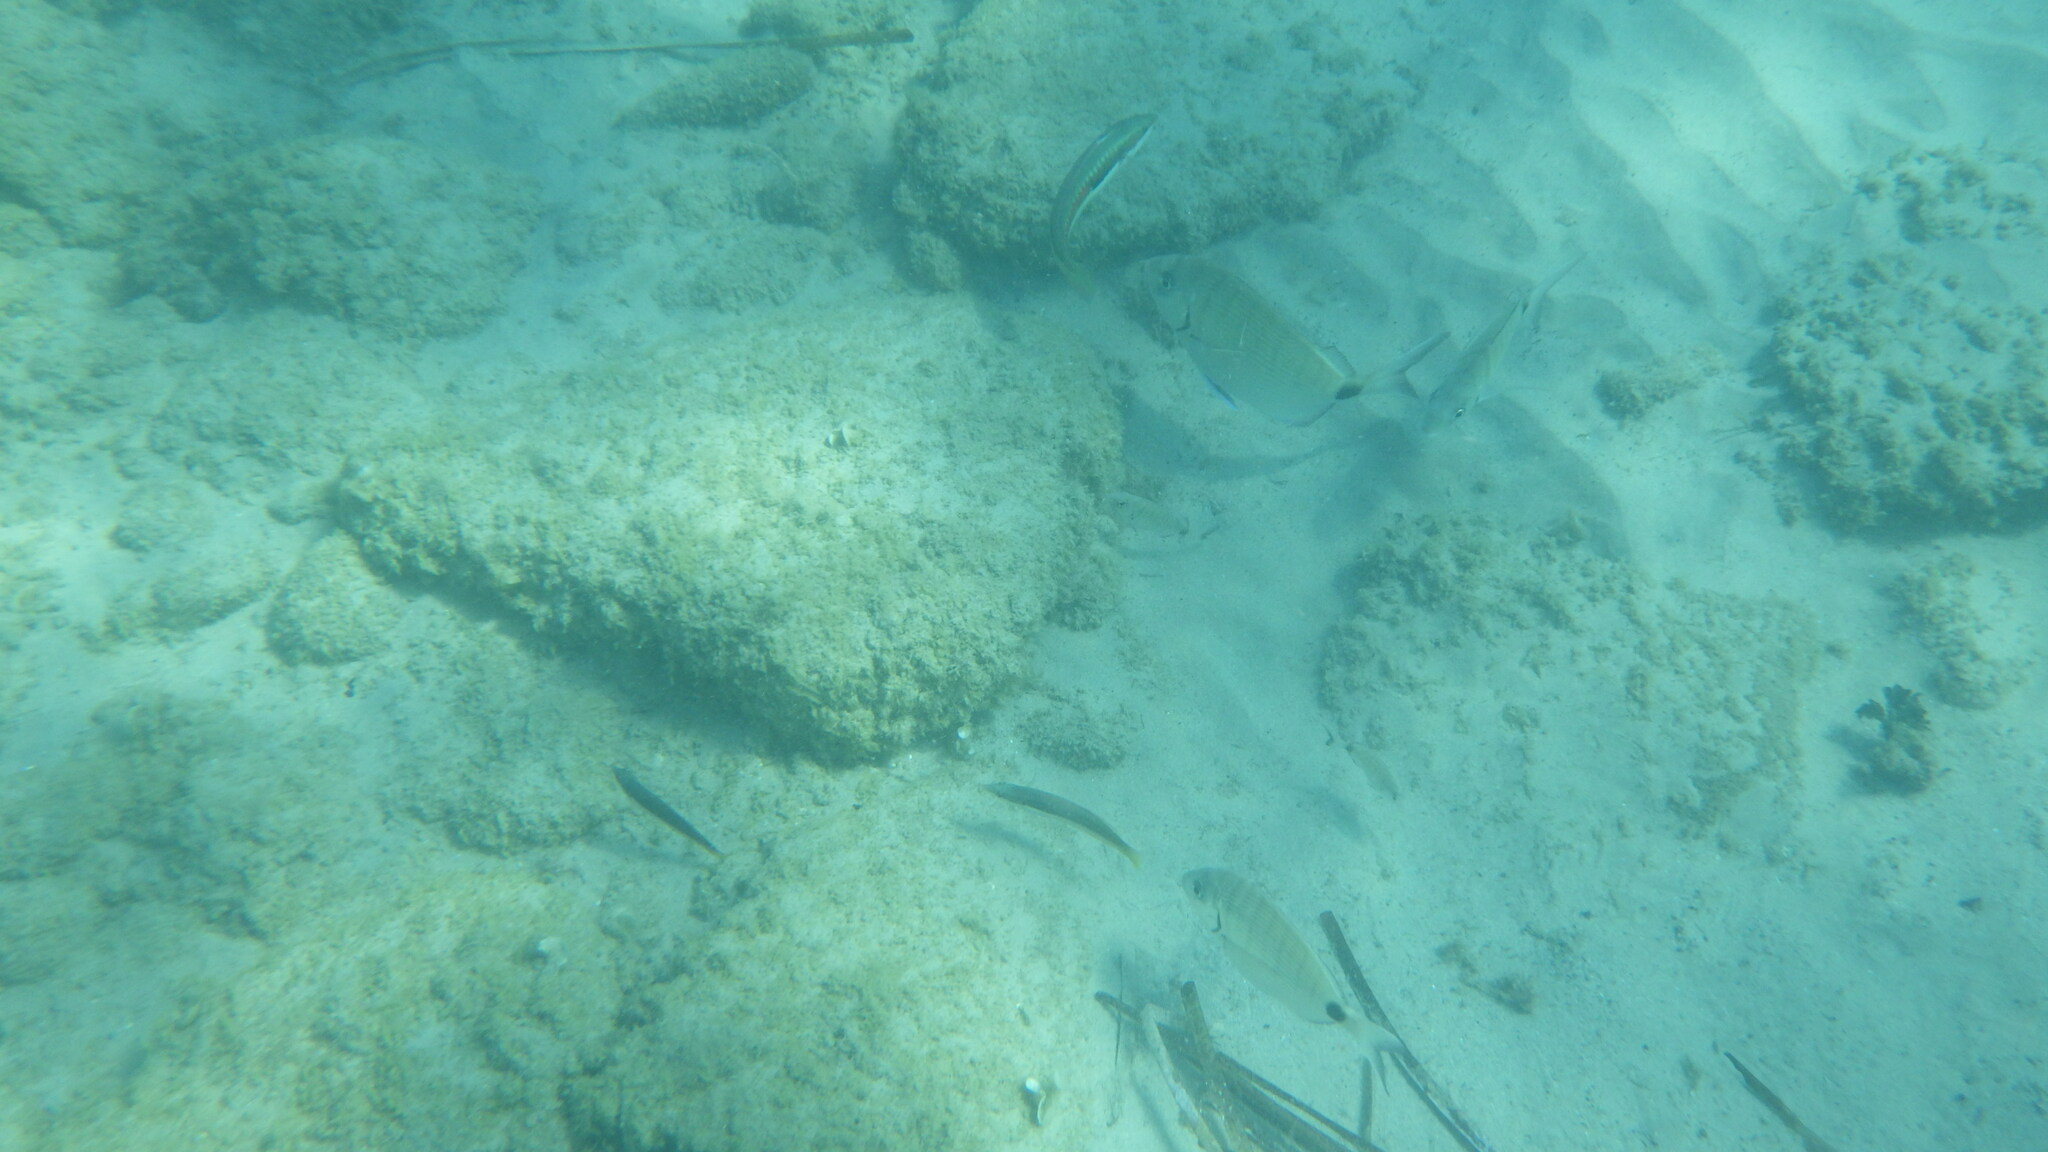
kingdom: Animalia
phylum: Chordata
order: Perciformes
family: Sparidae
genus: Diplodus
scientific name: Diplodus sargus
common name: White seabream
